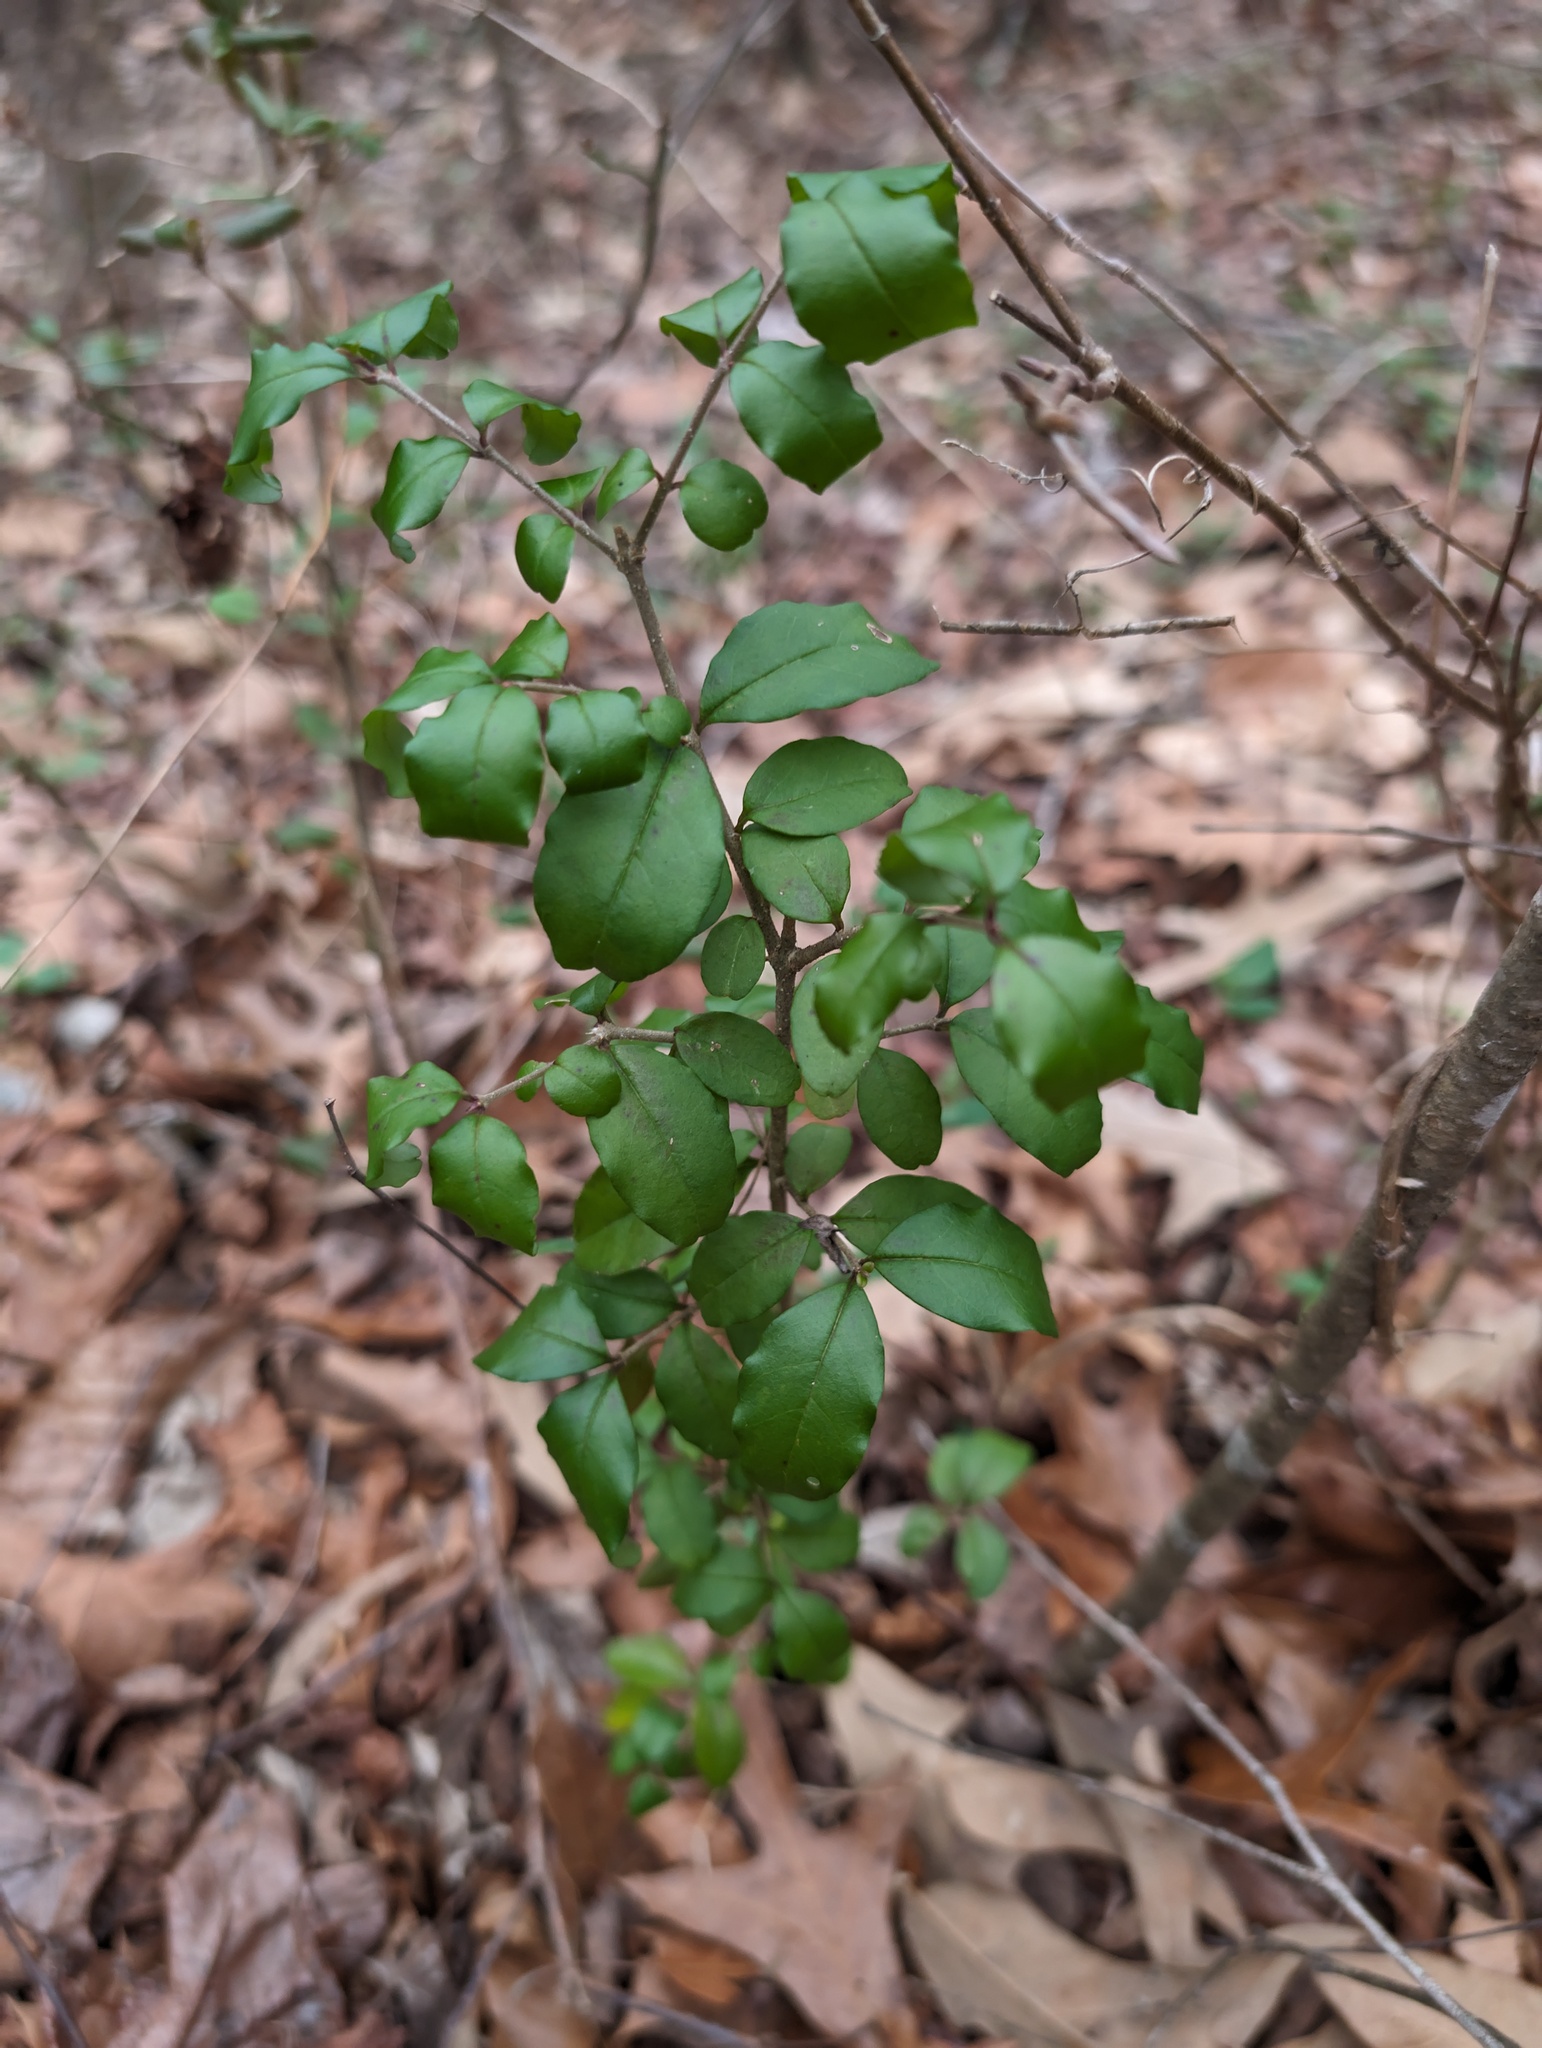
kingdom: Plantae
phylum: Tracheophyta
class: Magnoliopsida
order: Lamiales
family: Oleaceae
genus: Ligustrum
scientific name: Ligustrum sinense
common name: Chinese privet
